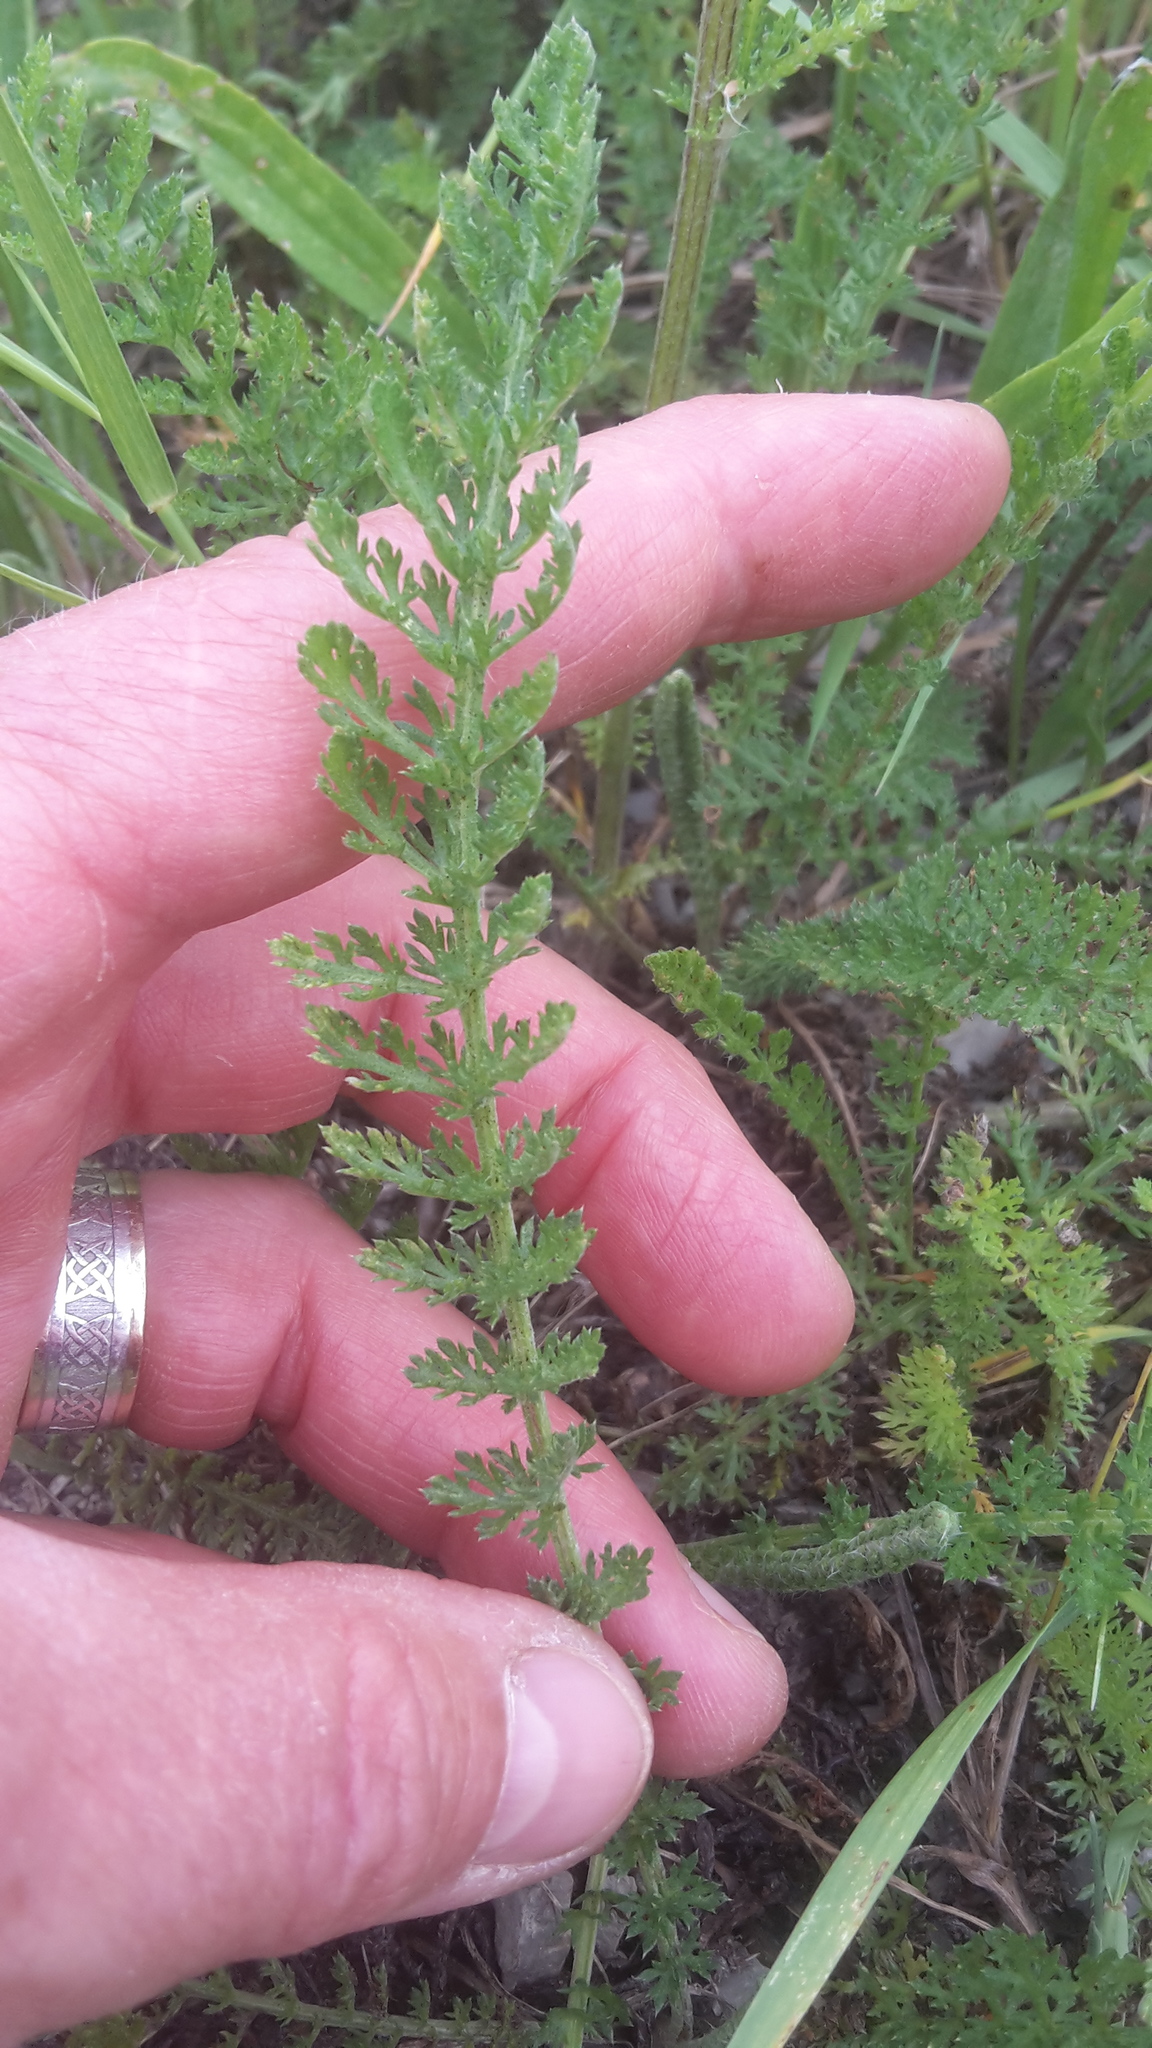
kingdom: Plantae
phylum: Tracheophyta
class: Magnoliopsida
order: Asterales
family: Asteraceae
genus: Achillea
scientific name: Achillea millefolium
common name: Yarrow
